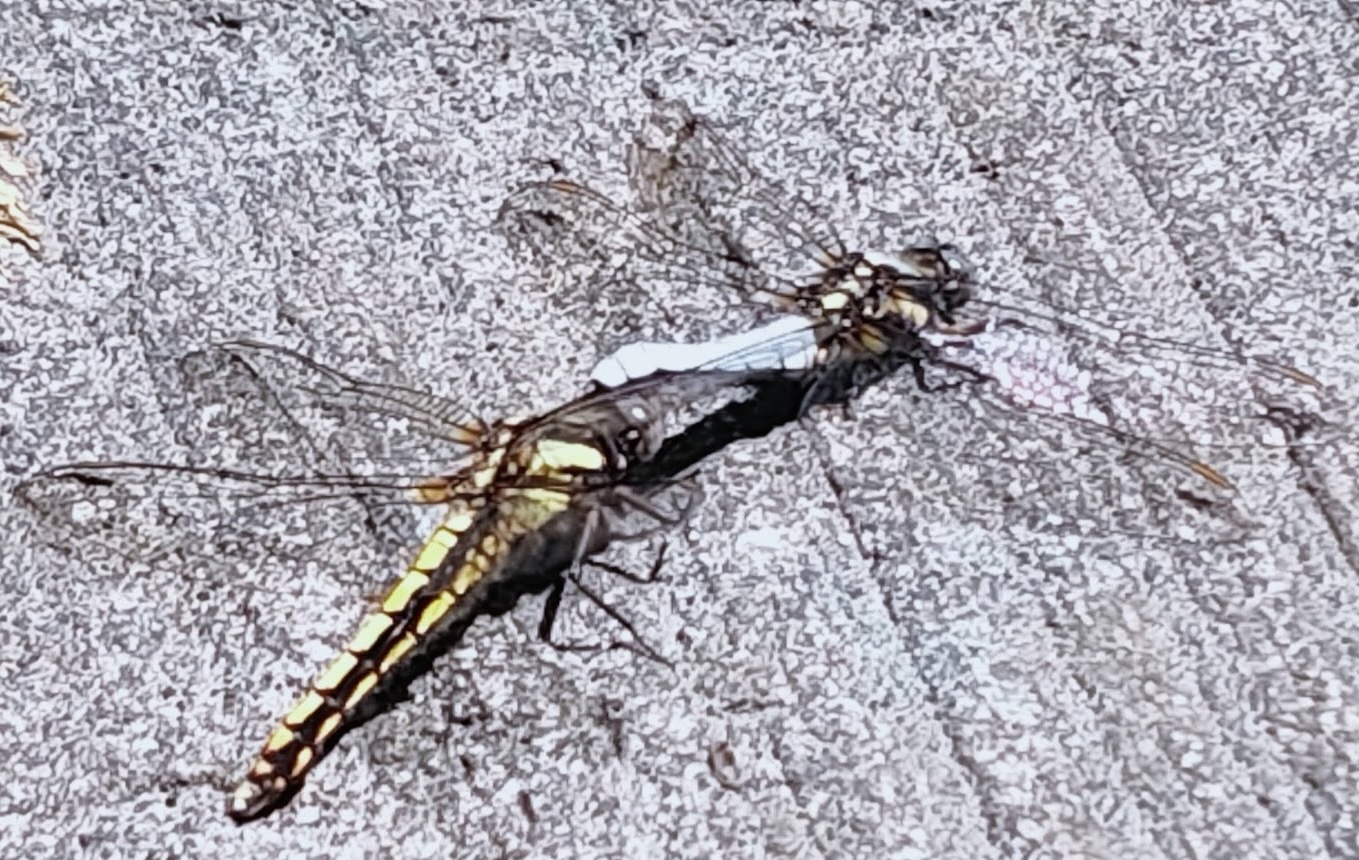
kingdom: Animalia
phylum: Arthropoda
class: Insecta
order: Odonata
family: Libellulidae
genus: Orthetrum
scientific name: Orthetrum japonicum
